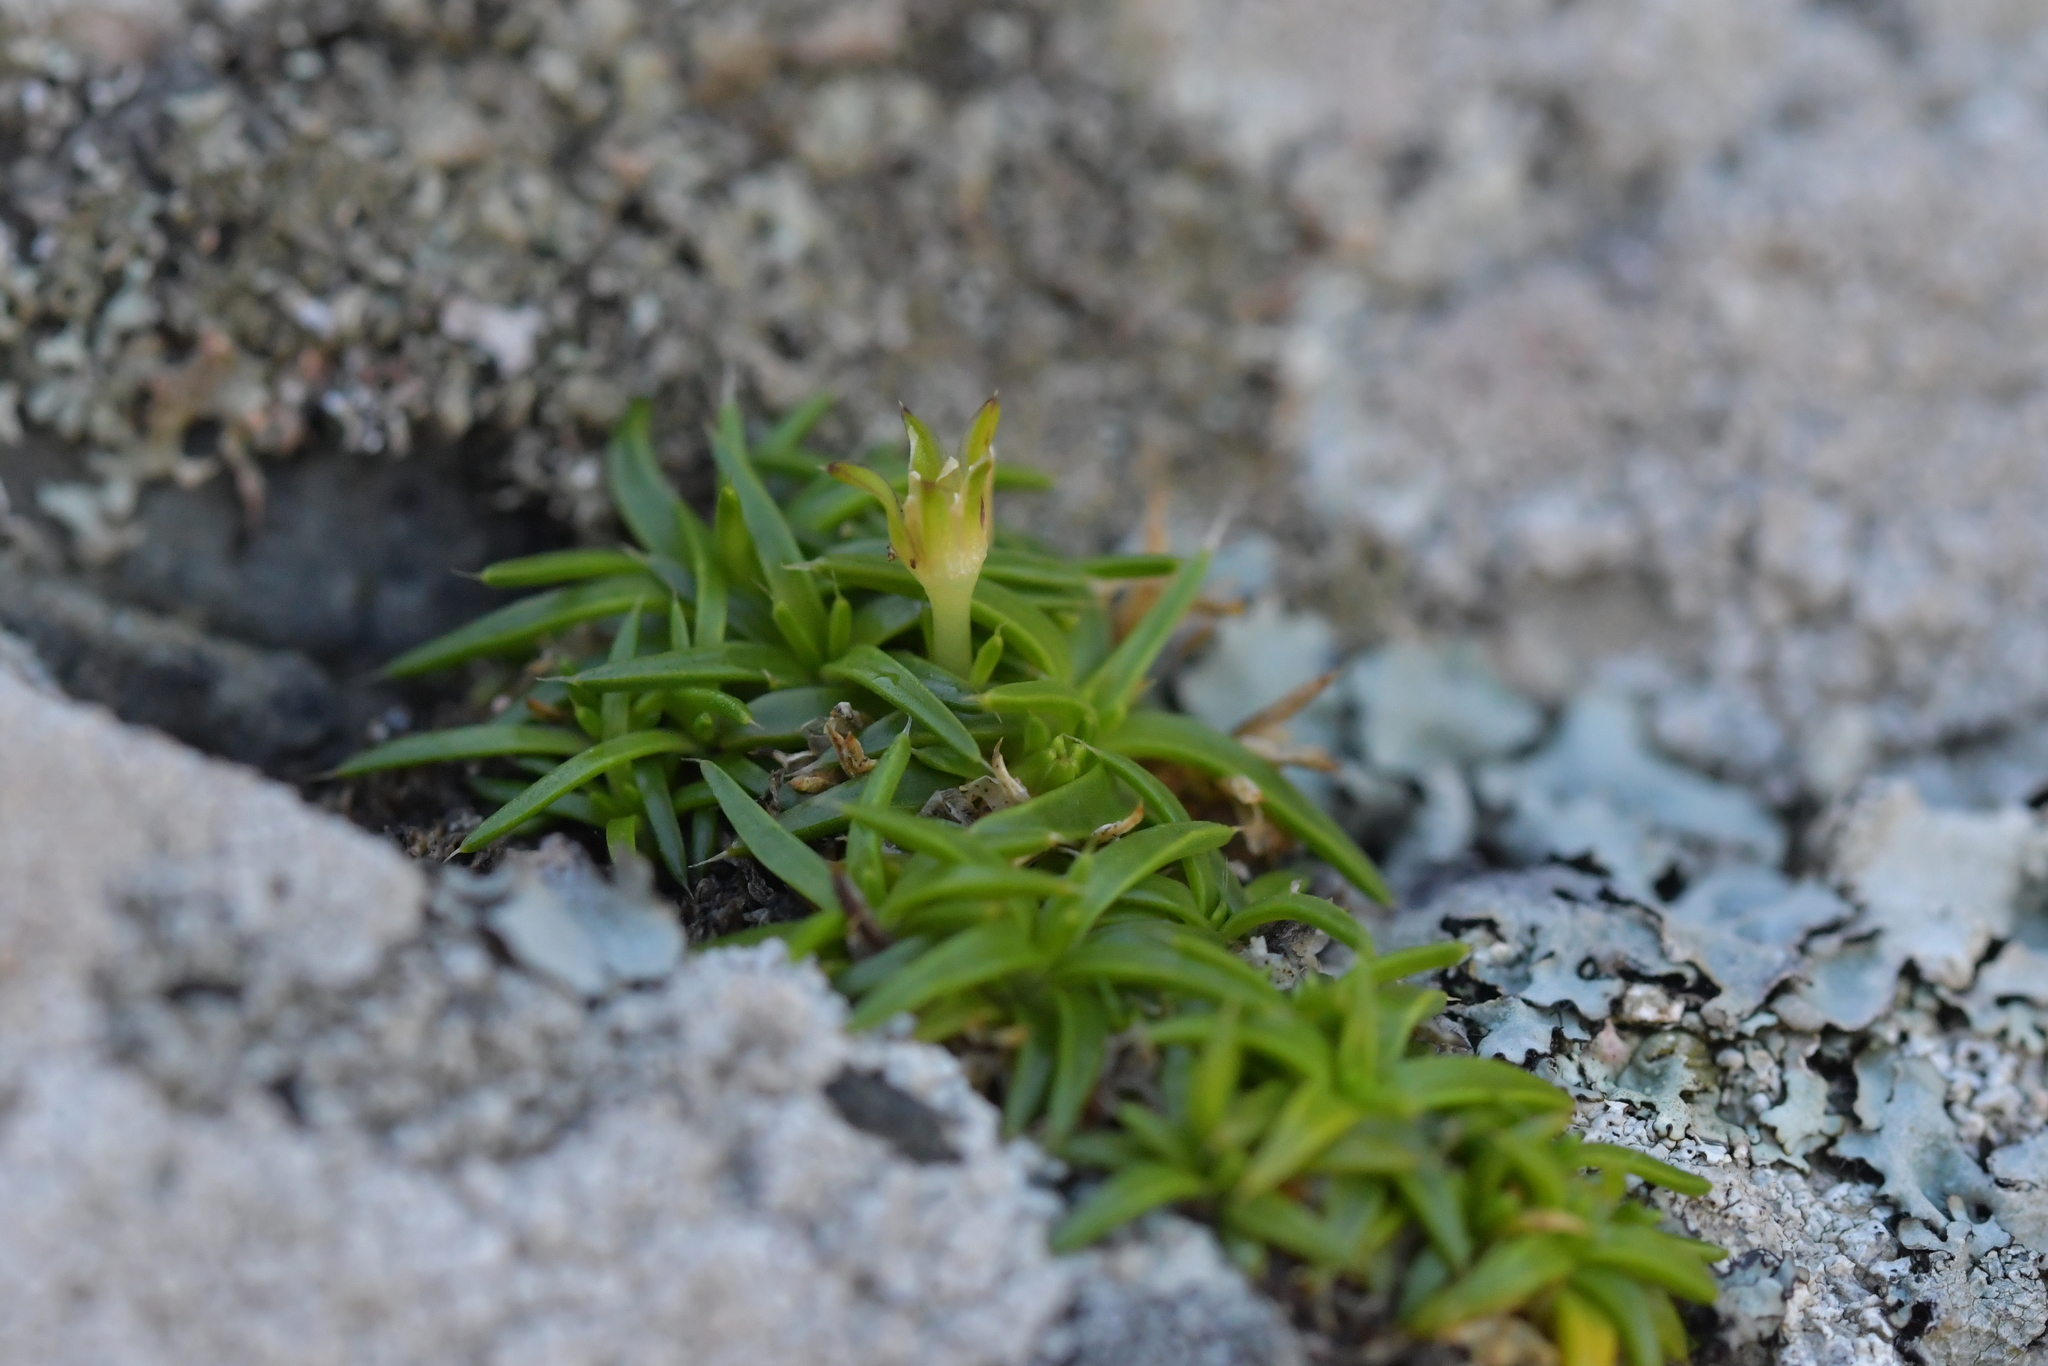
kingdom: Plantae
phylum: Tracheophyta
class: Magnoliopsida
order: Caryophyllales
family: Caryophyllaceae
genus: Colobanthus
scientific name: Colobanthus muelleri
